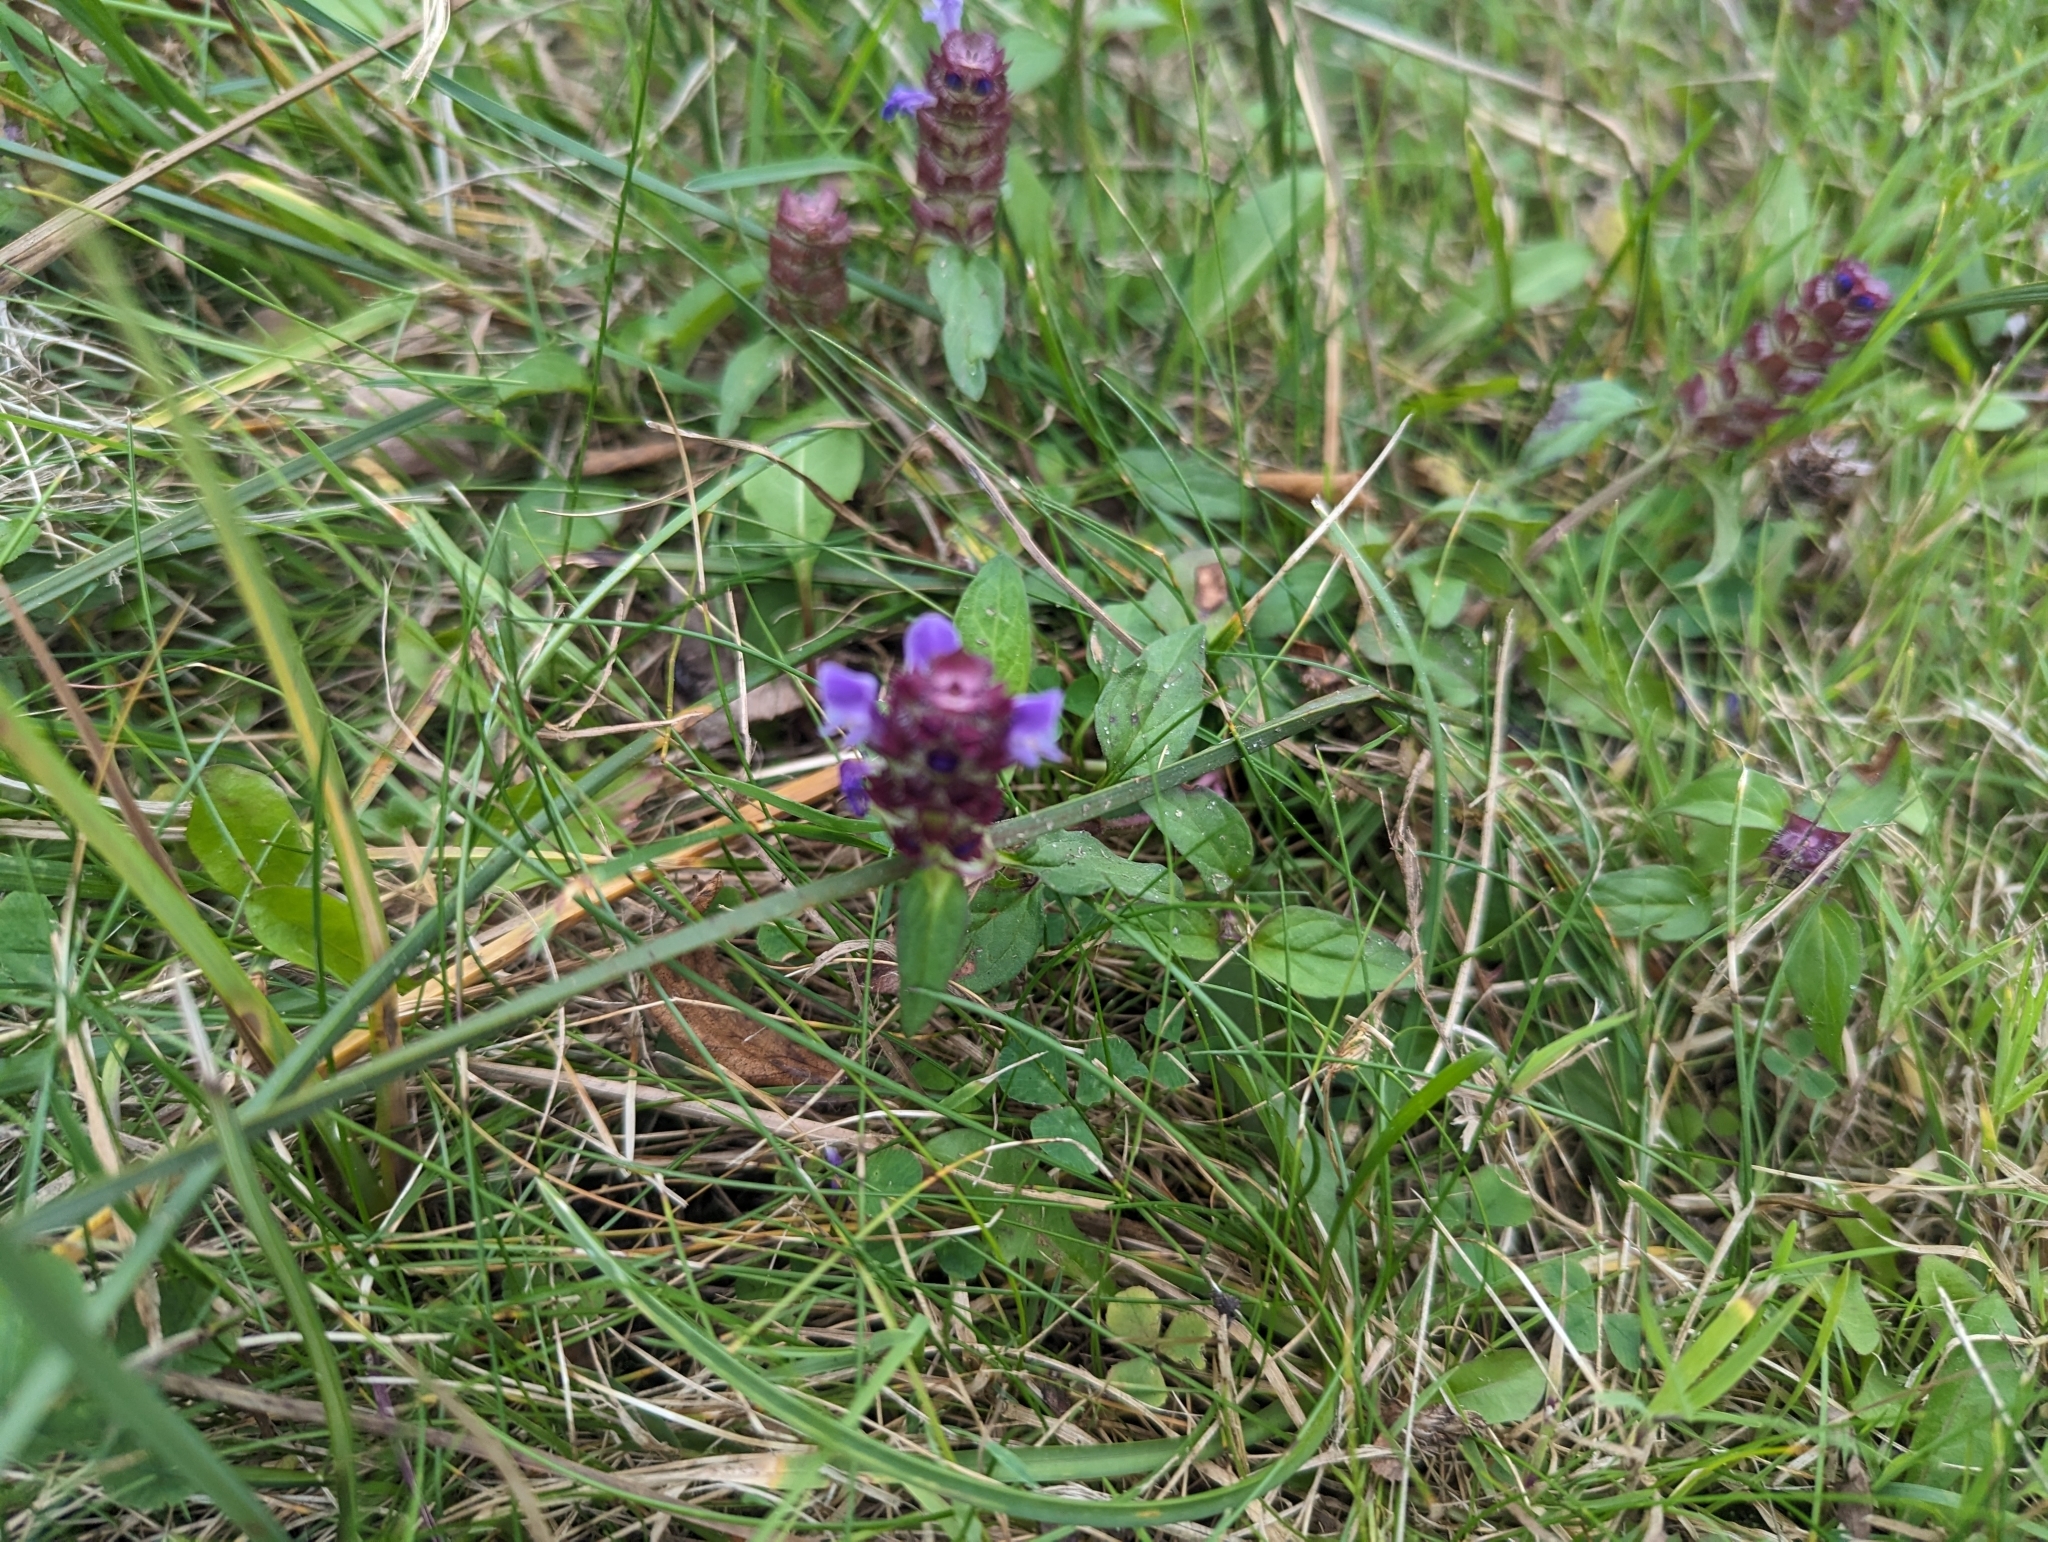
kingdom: Plantae
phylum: Tracheophyta
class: Magnoliopsida
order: Lamiales
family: Lamiaceae
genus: Prunella
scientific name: Prunella vulgaris
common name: Heal-all
